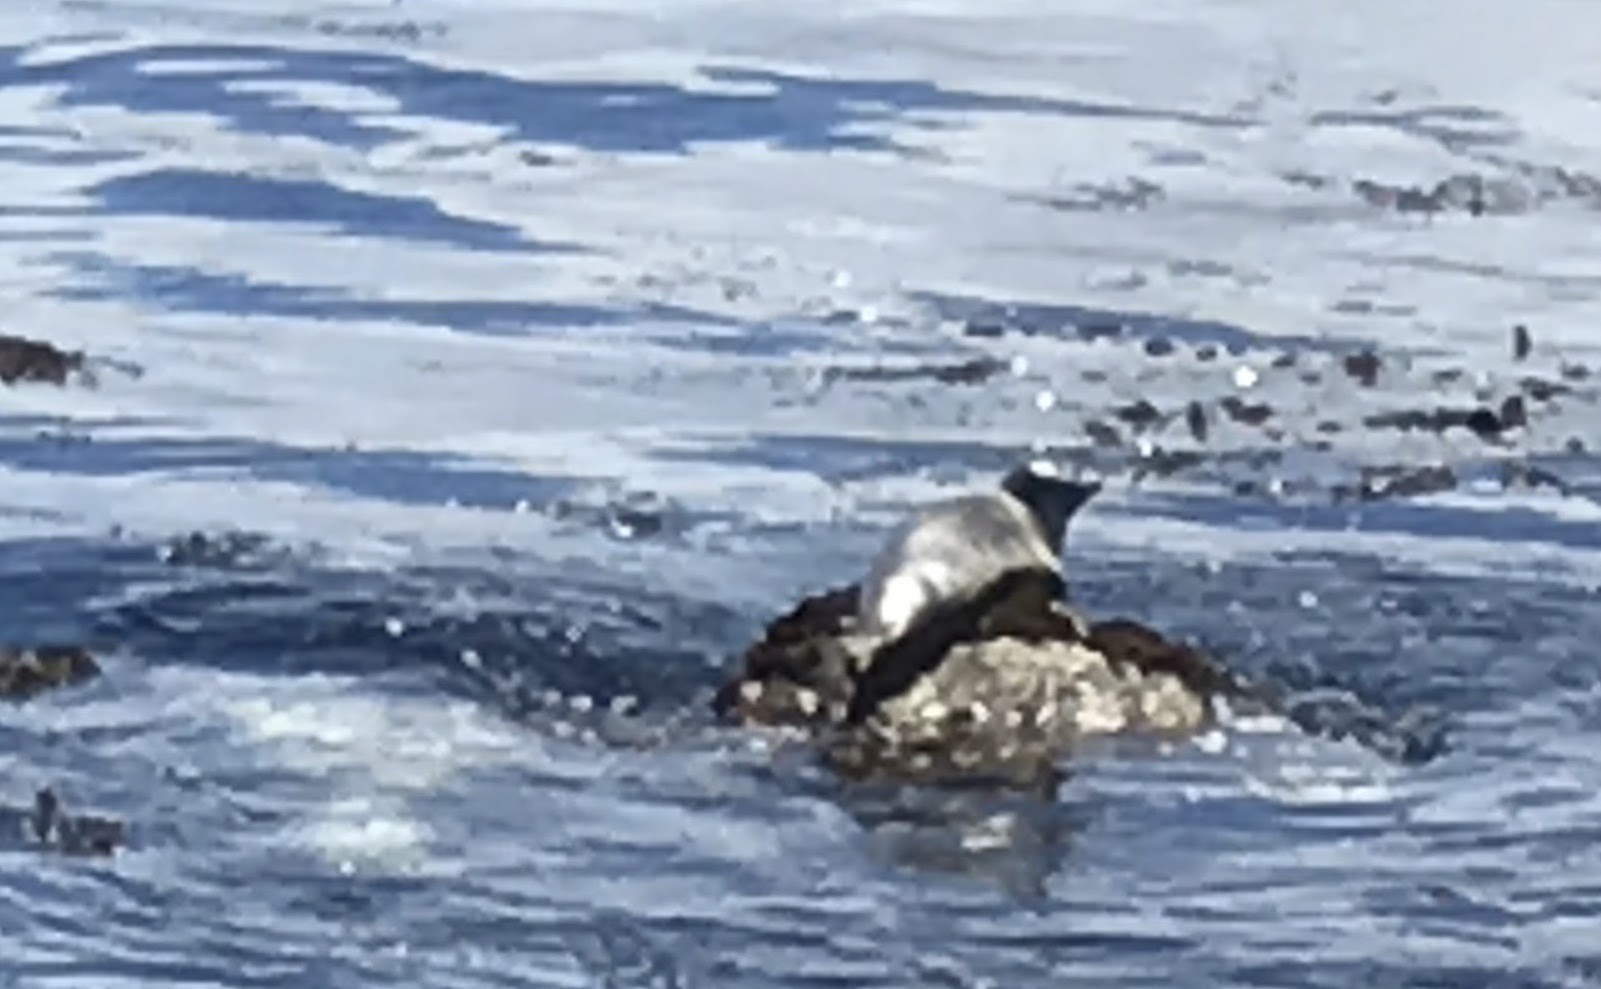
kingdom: Animalia
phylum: Chordata
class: Mammalia
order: Carnivora
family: Phocidae
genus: Phoca
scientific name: Phoca vitulina
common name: Harbor seal
